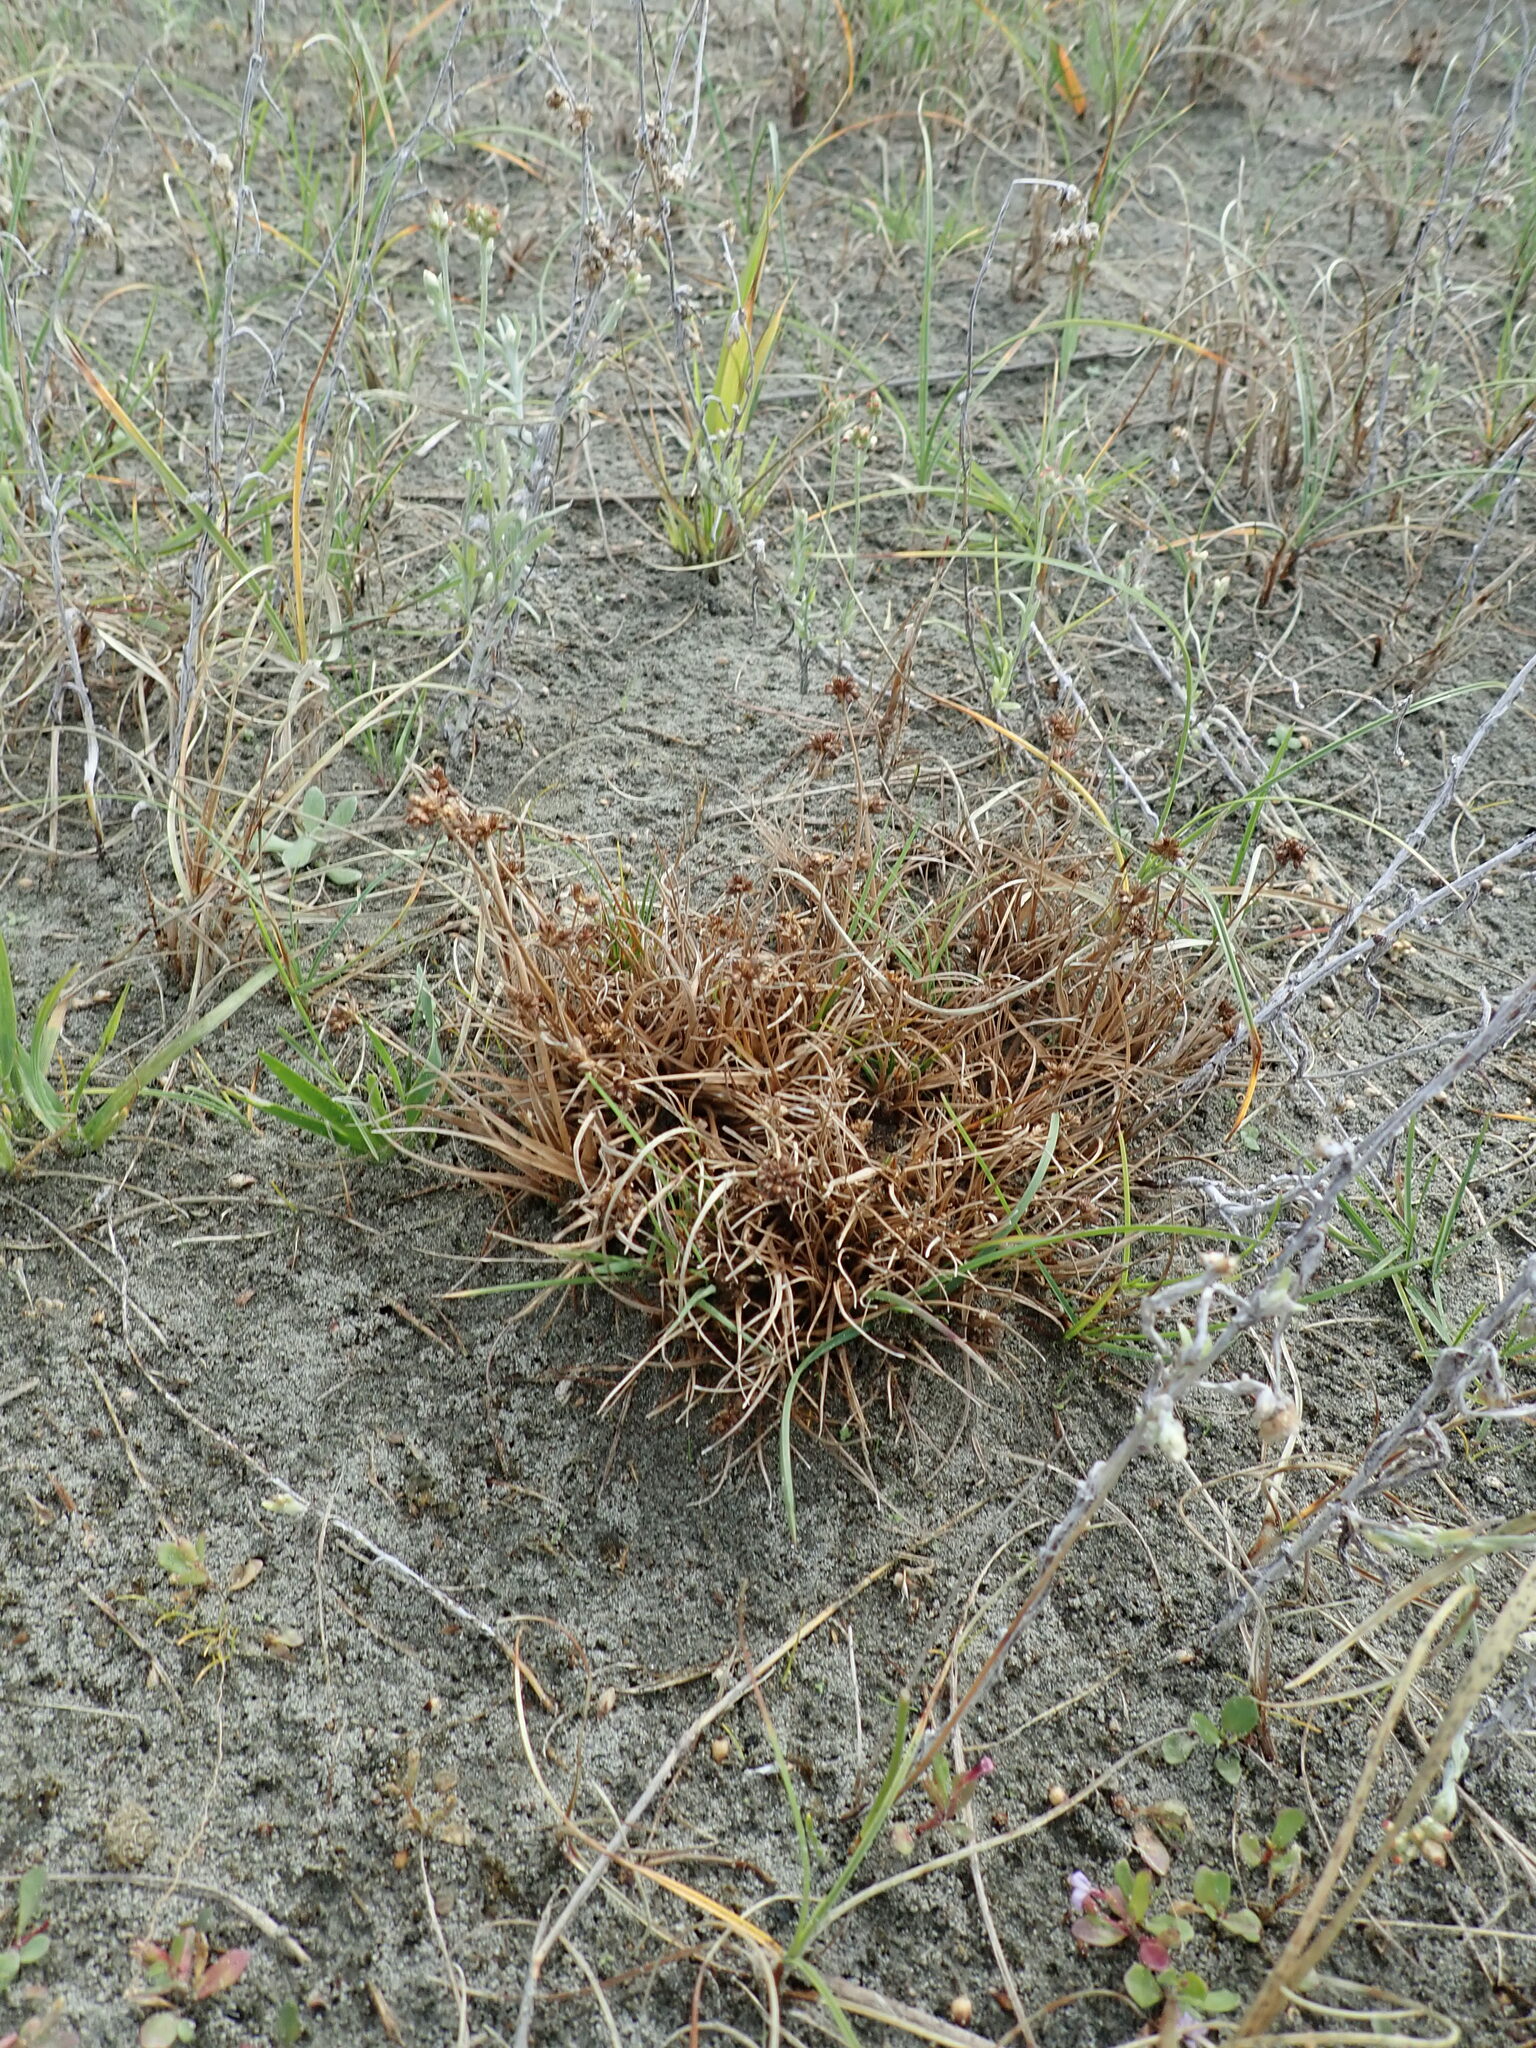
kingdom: Plantae
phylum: Tracheophyta
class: Liliopsida
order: Poales
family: Juncaceae
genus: Juncus
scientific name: Juncus caespiticius
